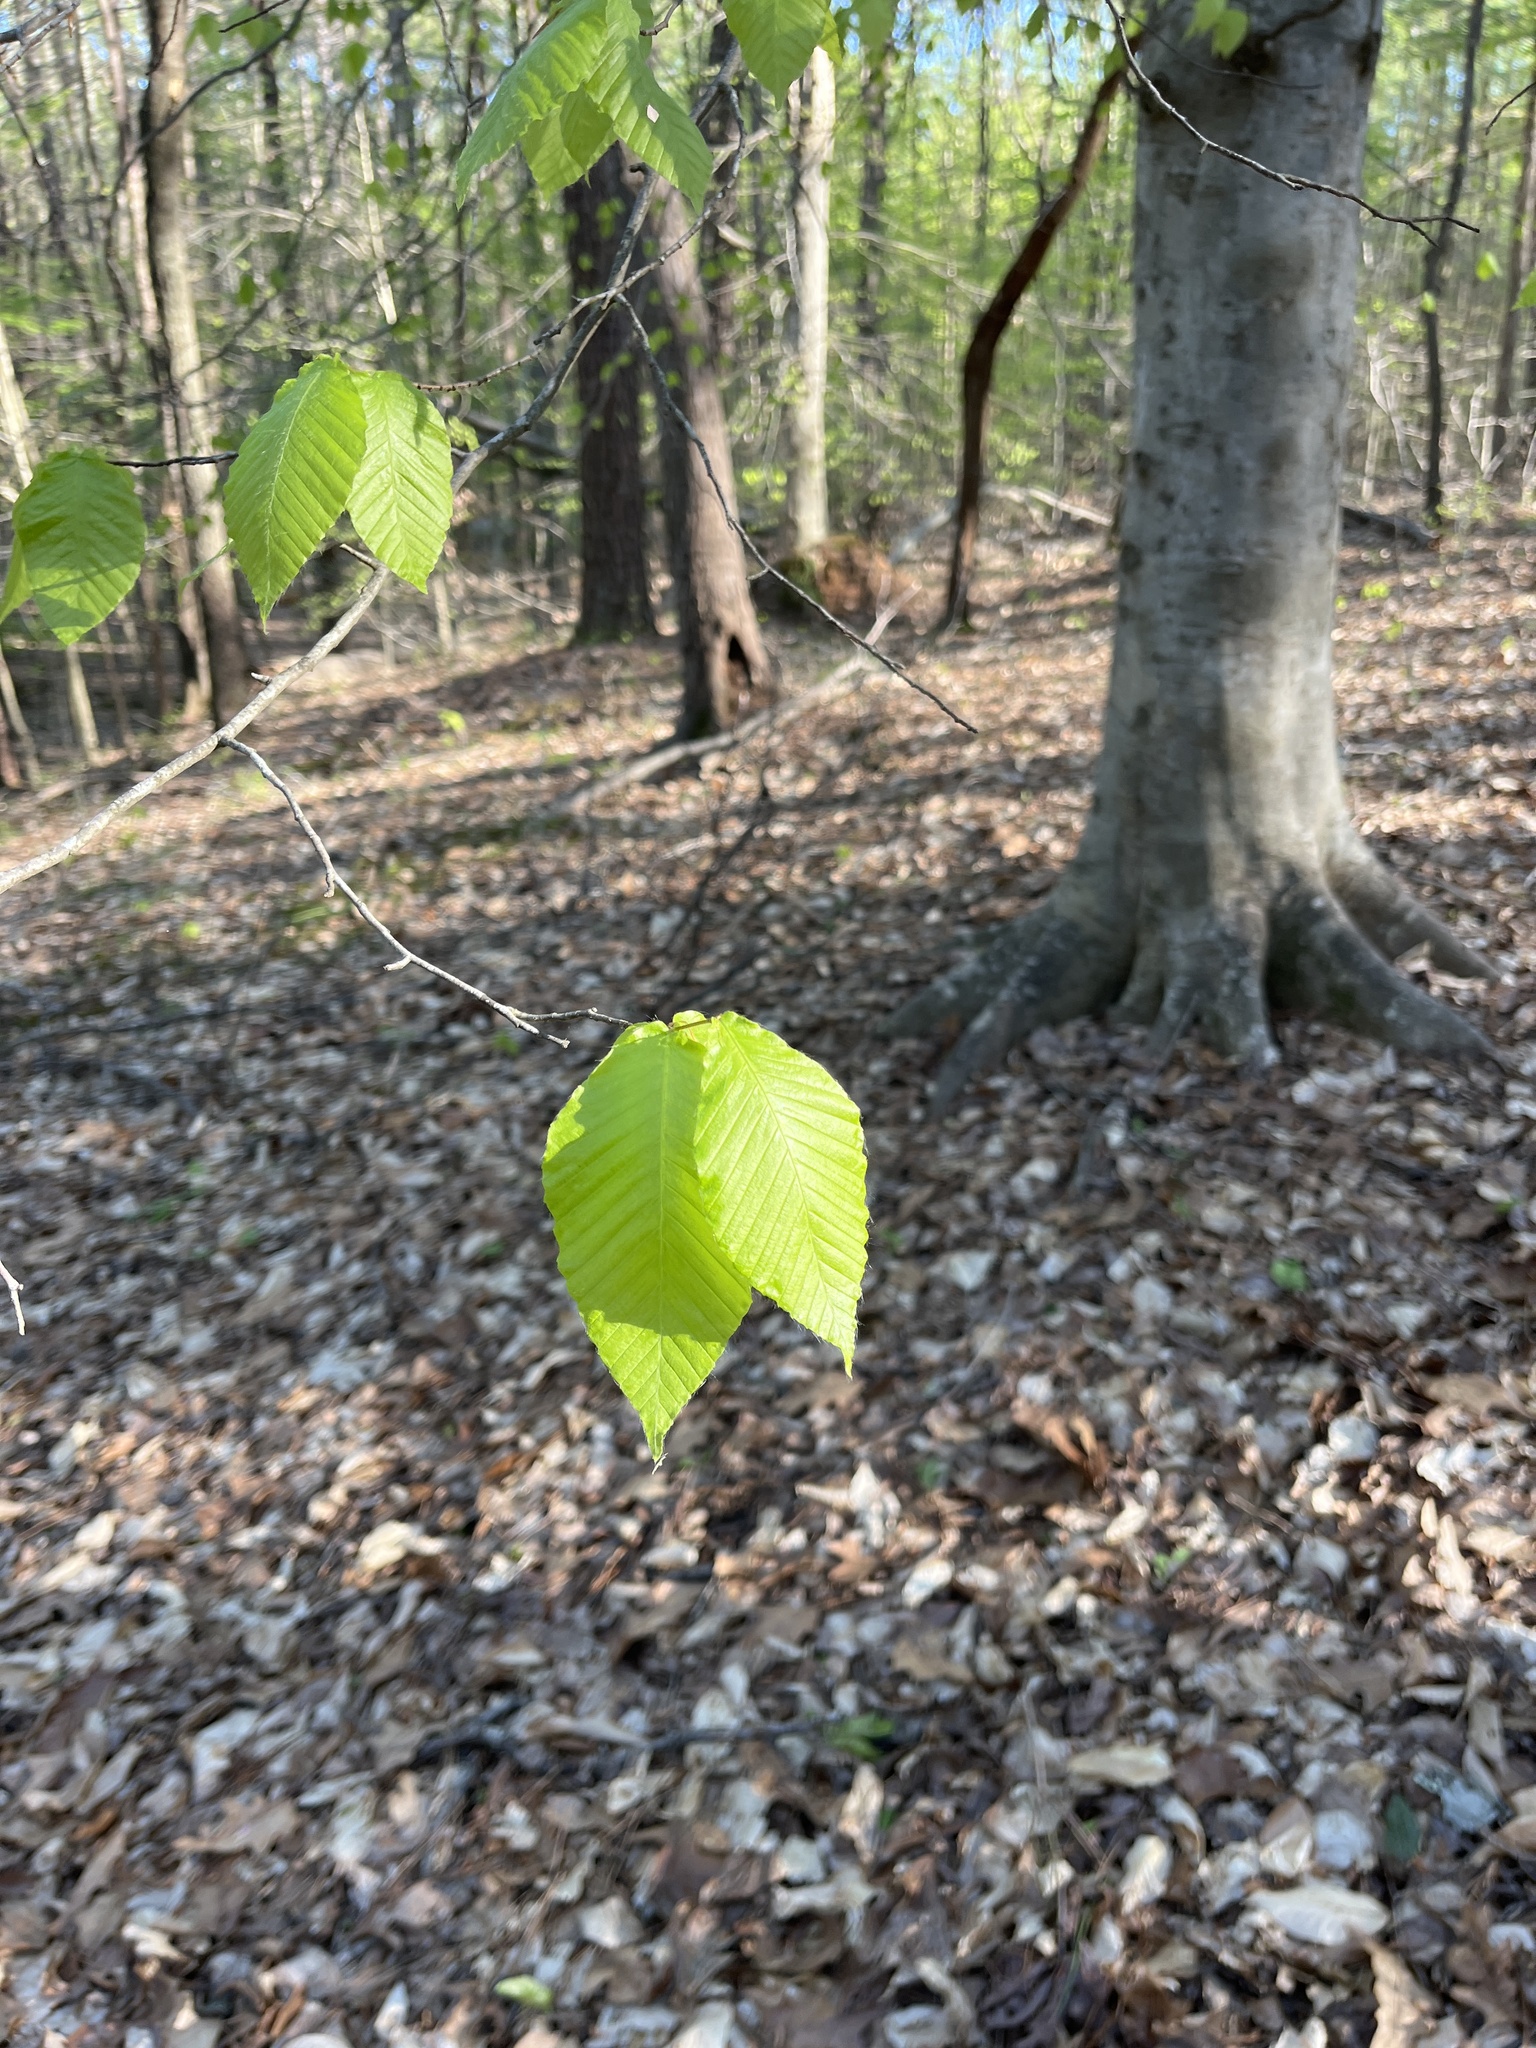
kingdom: Plantae
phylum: Tracheophyta
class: Magnoliopsida
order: Fagales
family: Fagaceae
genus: Fagus
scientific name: Fagus grandifolia
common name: American beech
